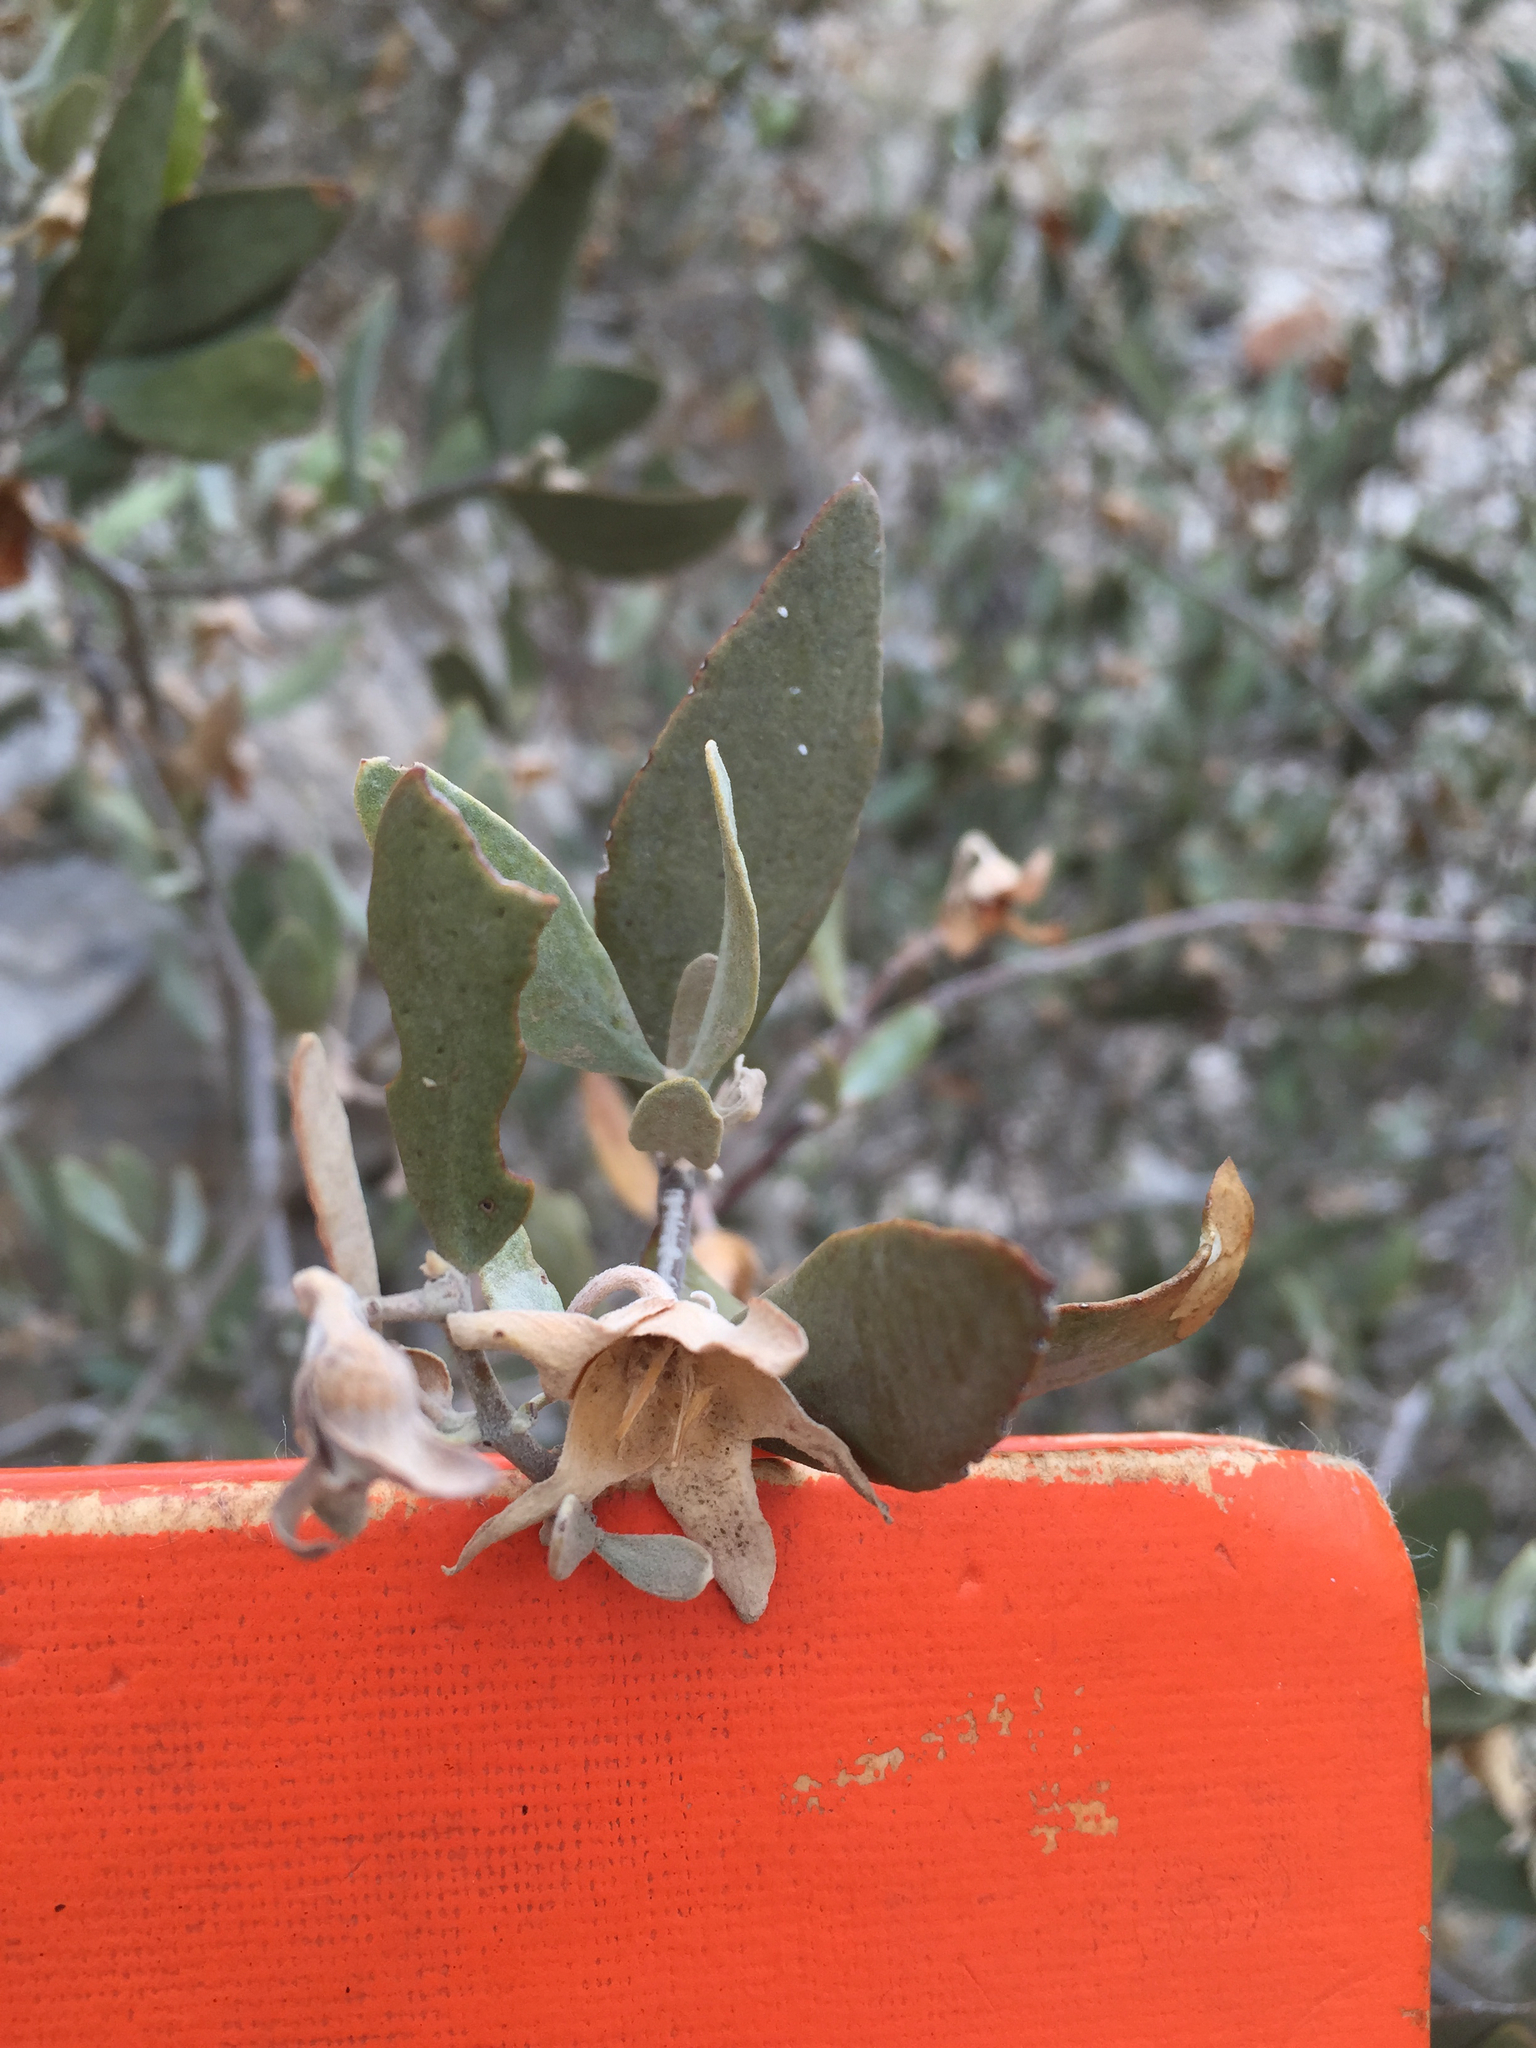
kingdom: Plantae
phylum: Tracheophyta
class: Magnoliopsida
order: Caryophyllales
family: Simmondsiaceae
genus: Simmondsia
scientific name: Simmondsia chinensis
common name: Jojoba
